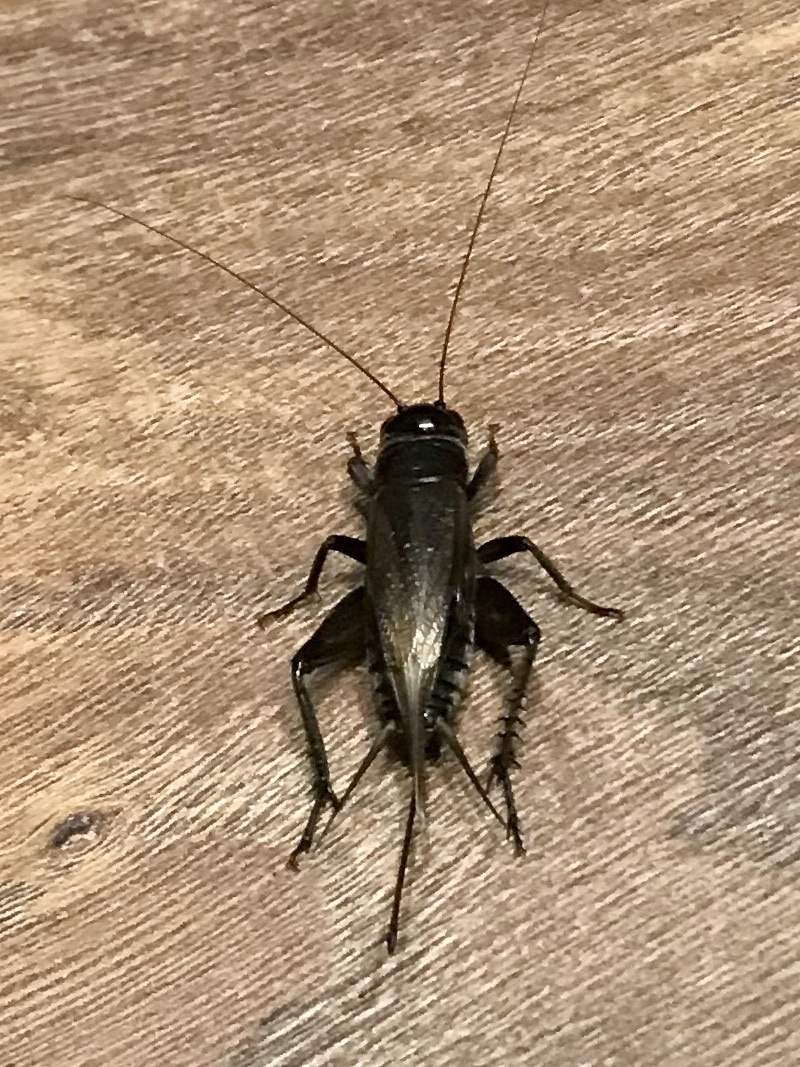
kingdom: Animalia
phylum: Arthropoda
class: Insecta
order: Orthoptera
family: Gryllidae
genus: Teleogryllus
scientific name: Teleogryllus commodus
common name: Black field cricket
